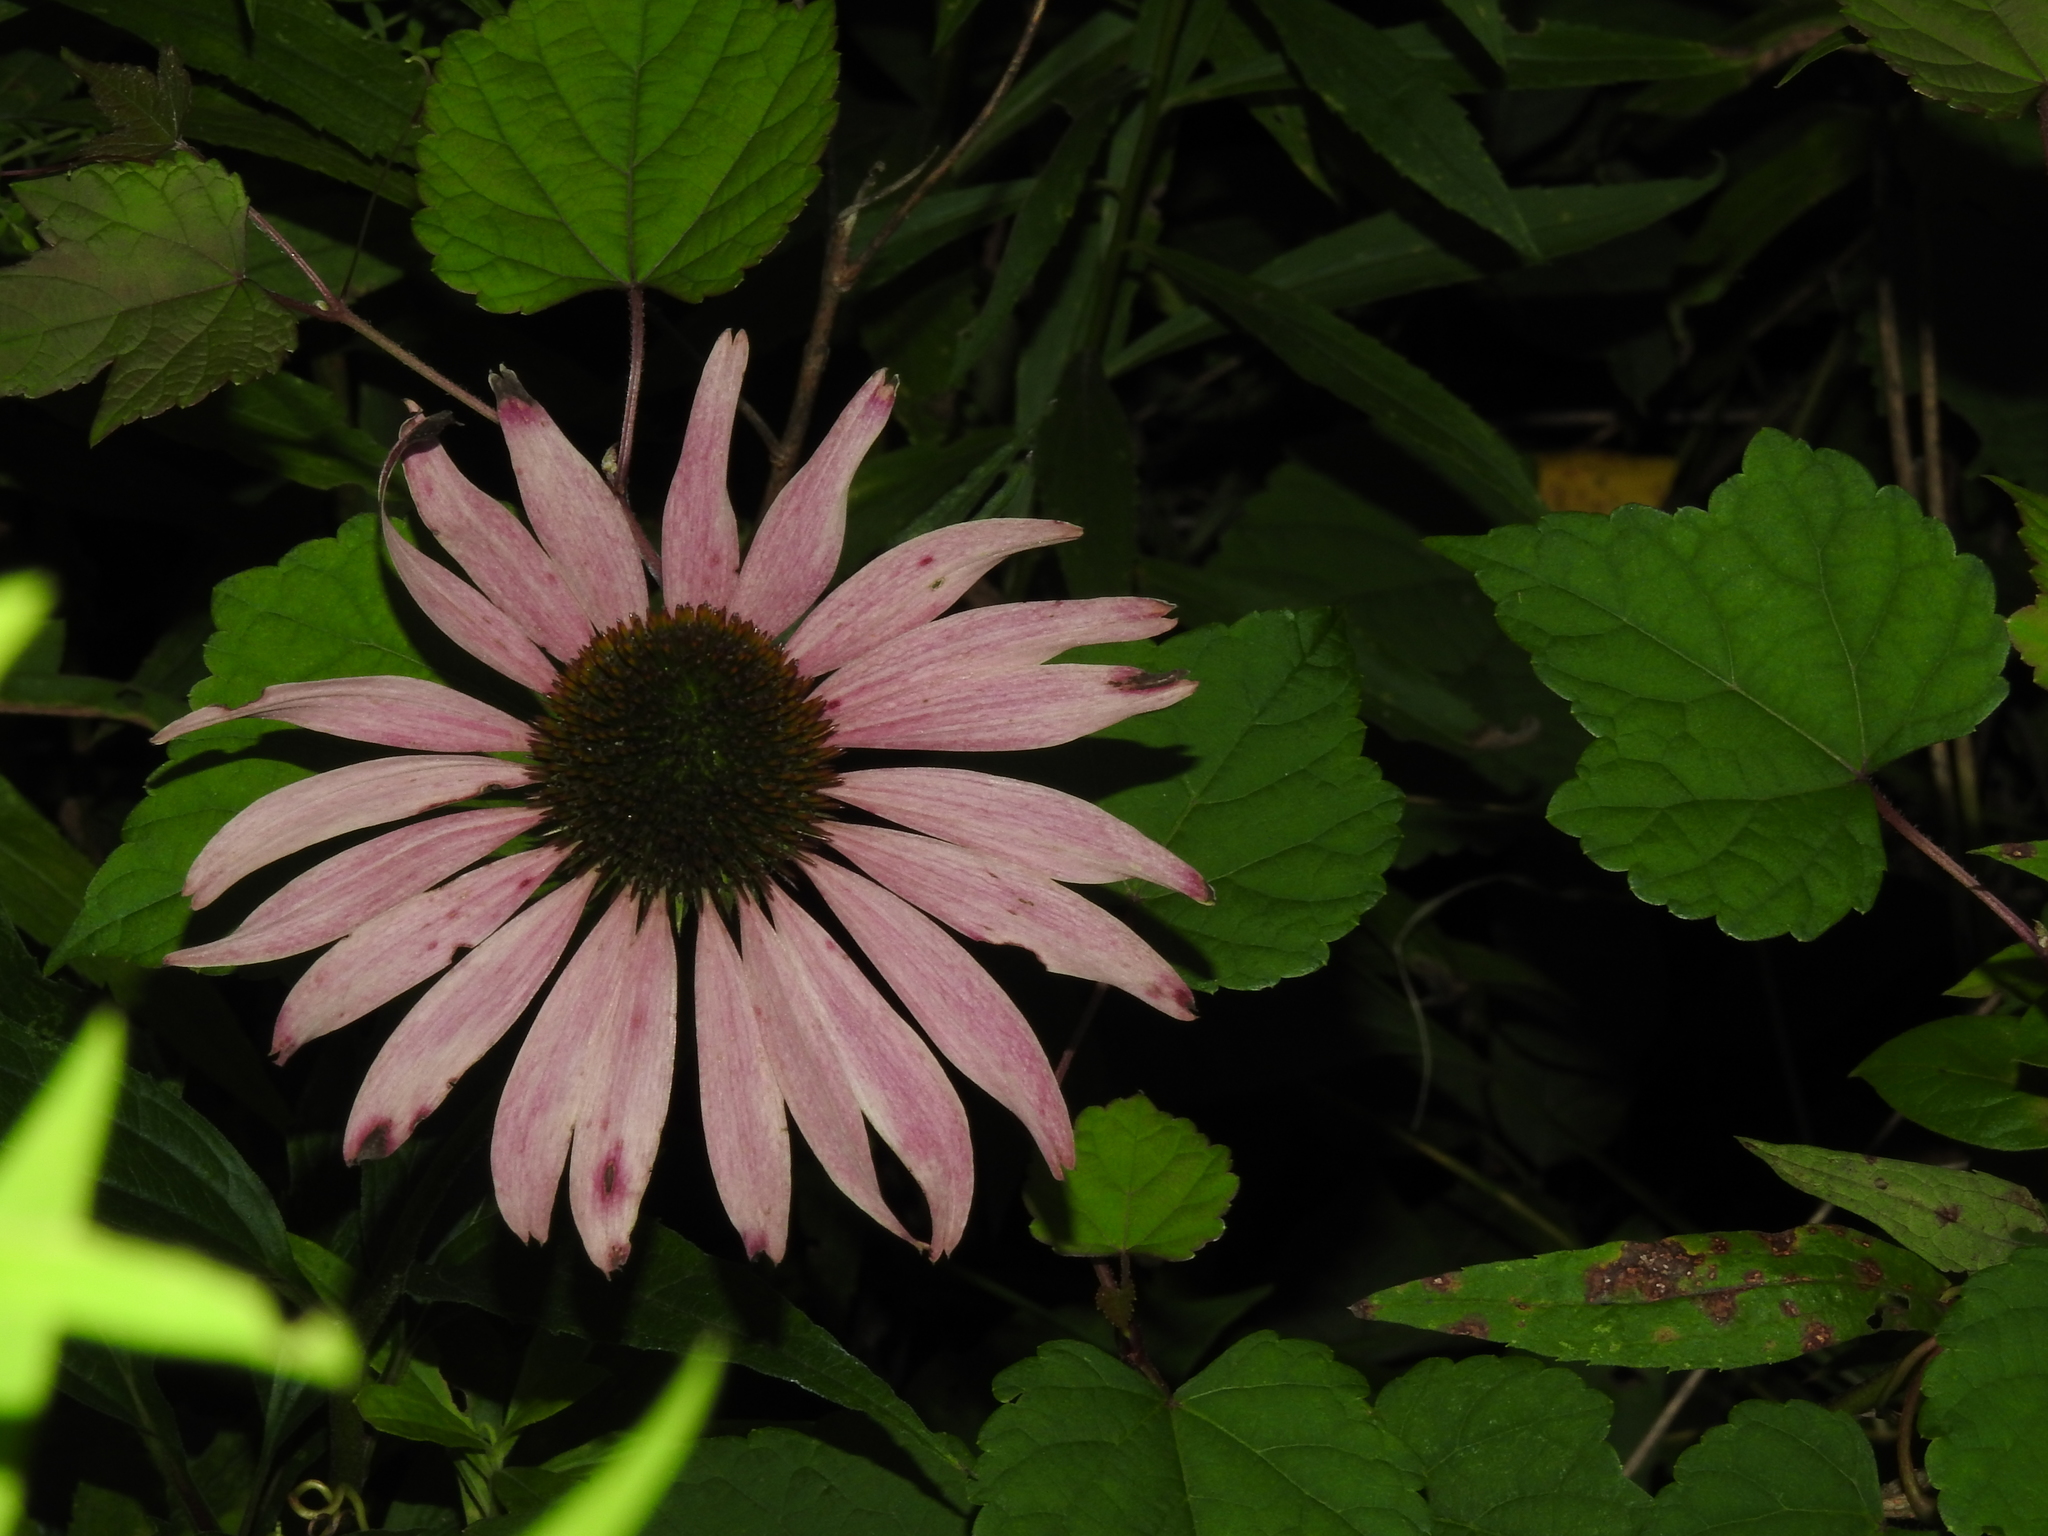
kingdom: Plantae
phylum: Tracheophyta
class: Magnoliopsida
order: Asterales
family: Asteraceae
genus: Echinacea
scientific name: Echinacea purpurea
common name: Broad-leaved purple coneflower
